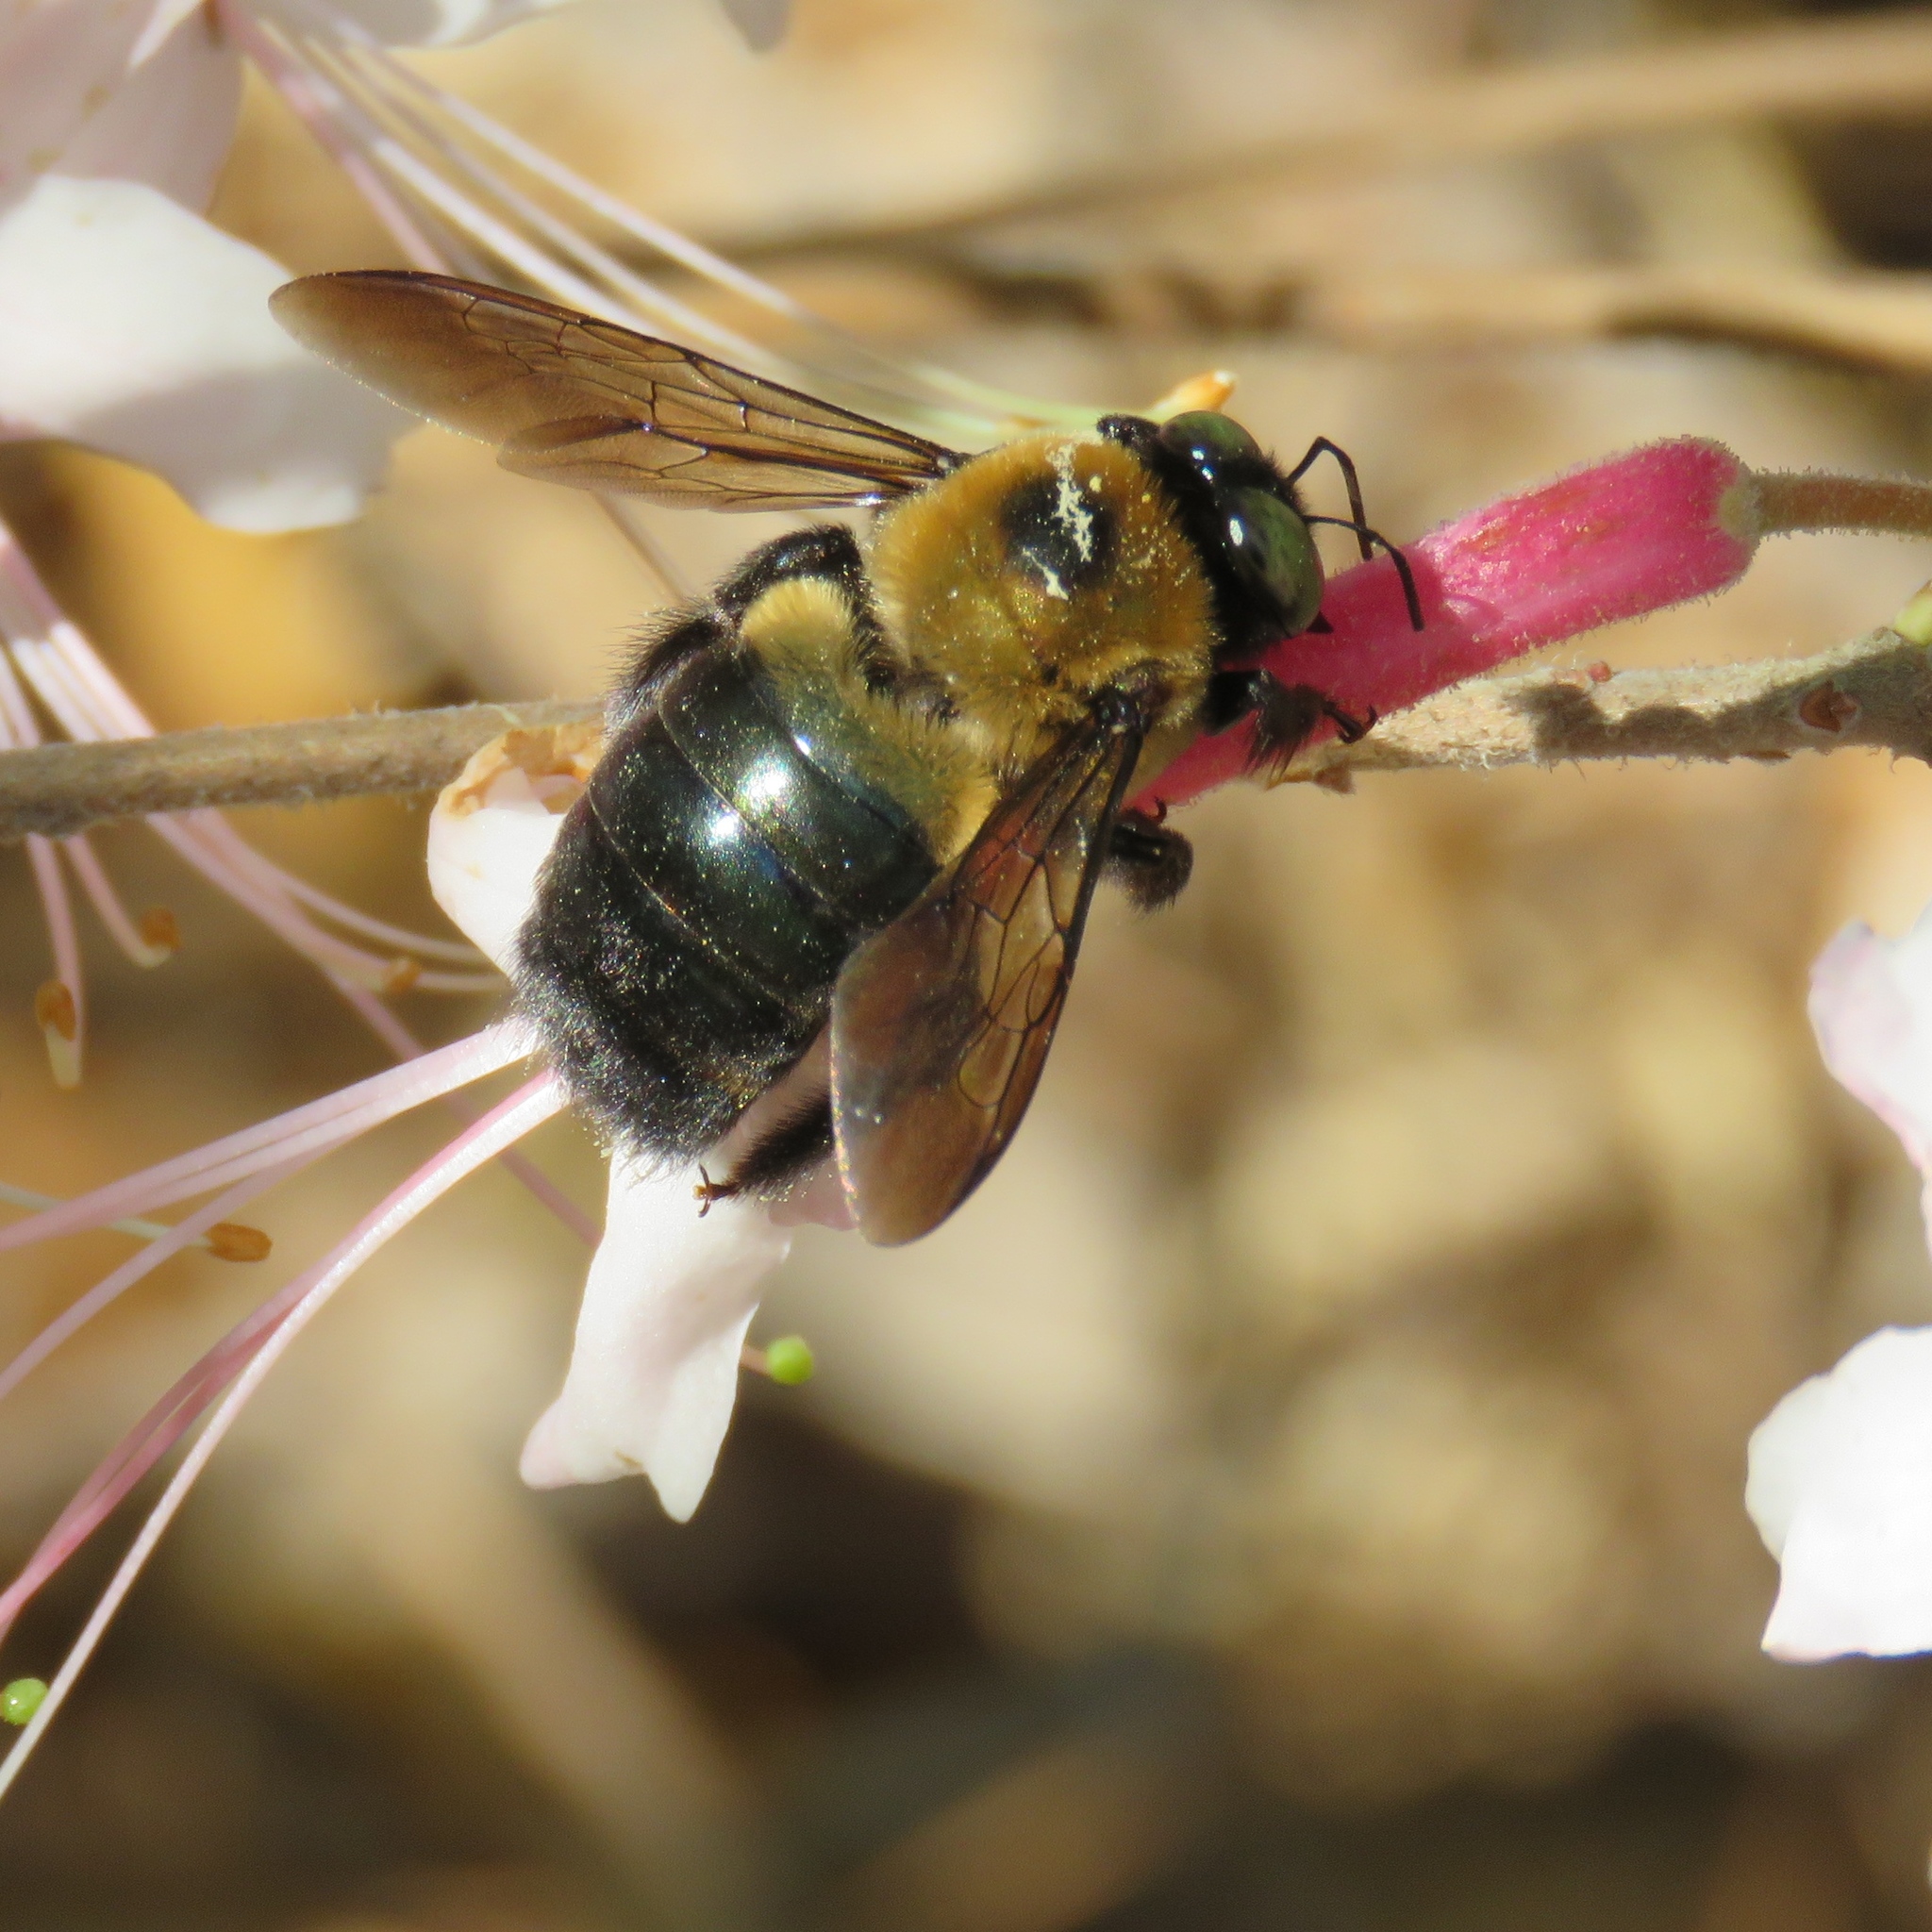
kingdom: Animalia
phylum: Arthropoda
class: Insecta
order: Hymenoptera
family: Apidae
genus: Xylocopa
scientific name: Xylocopa micans
